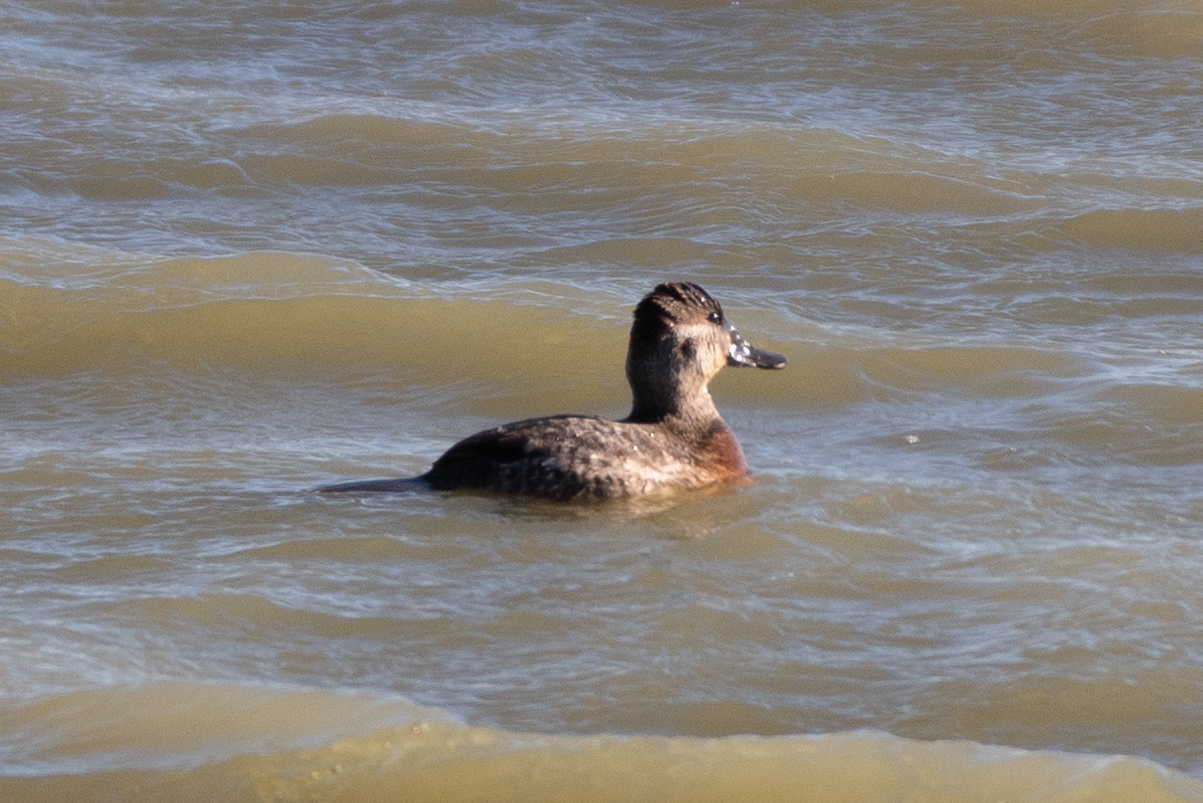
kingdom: Animalia
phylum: Chordata
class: Aves
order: Anseriformes
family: Anatidae
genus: Oxyura
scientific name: Oxyura jamaicensis
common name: Ruddy duck
